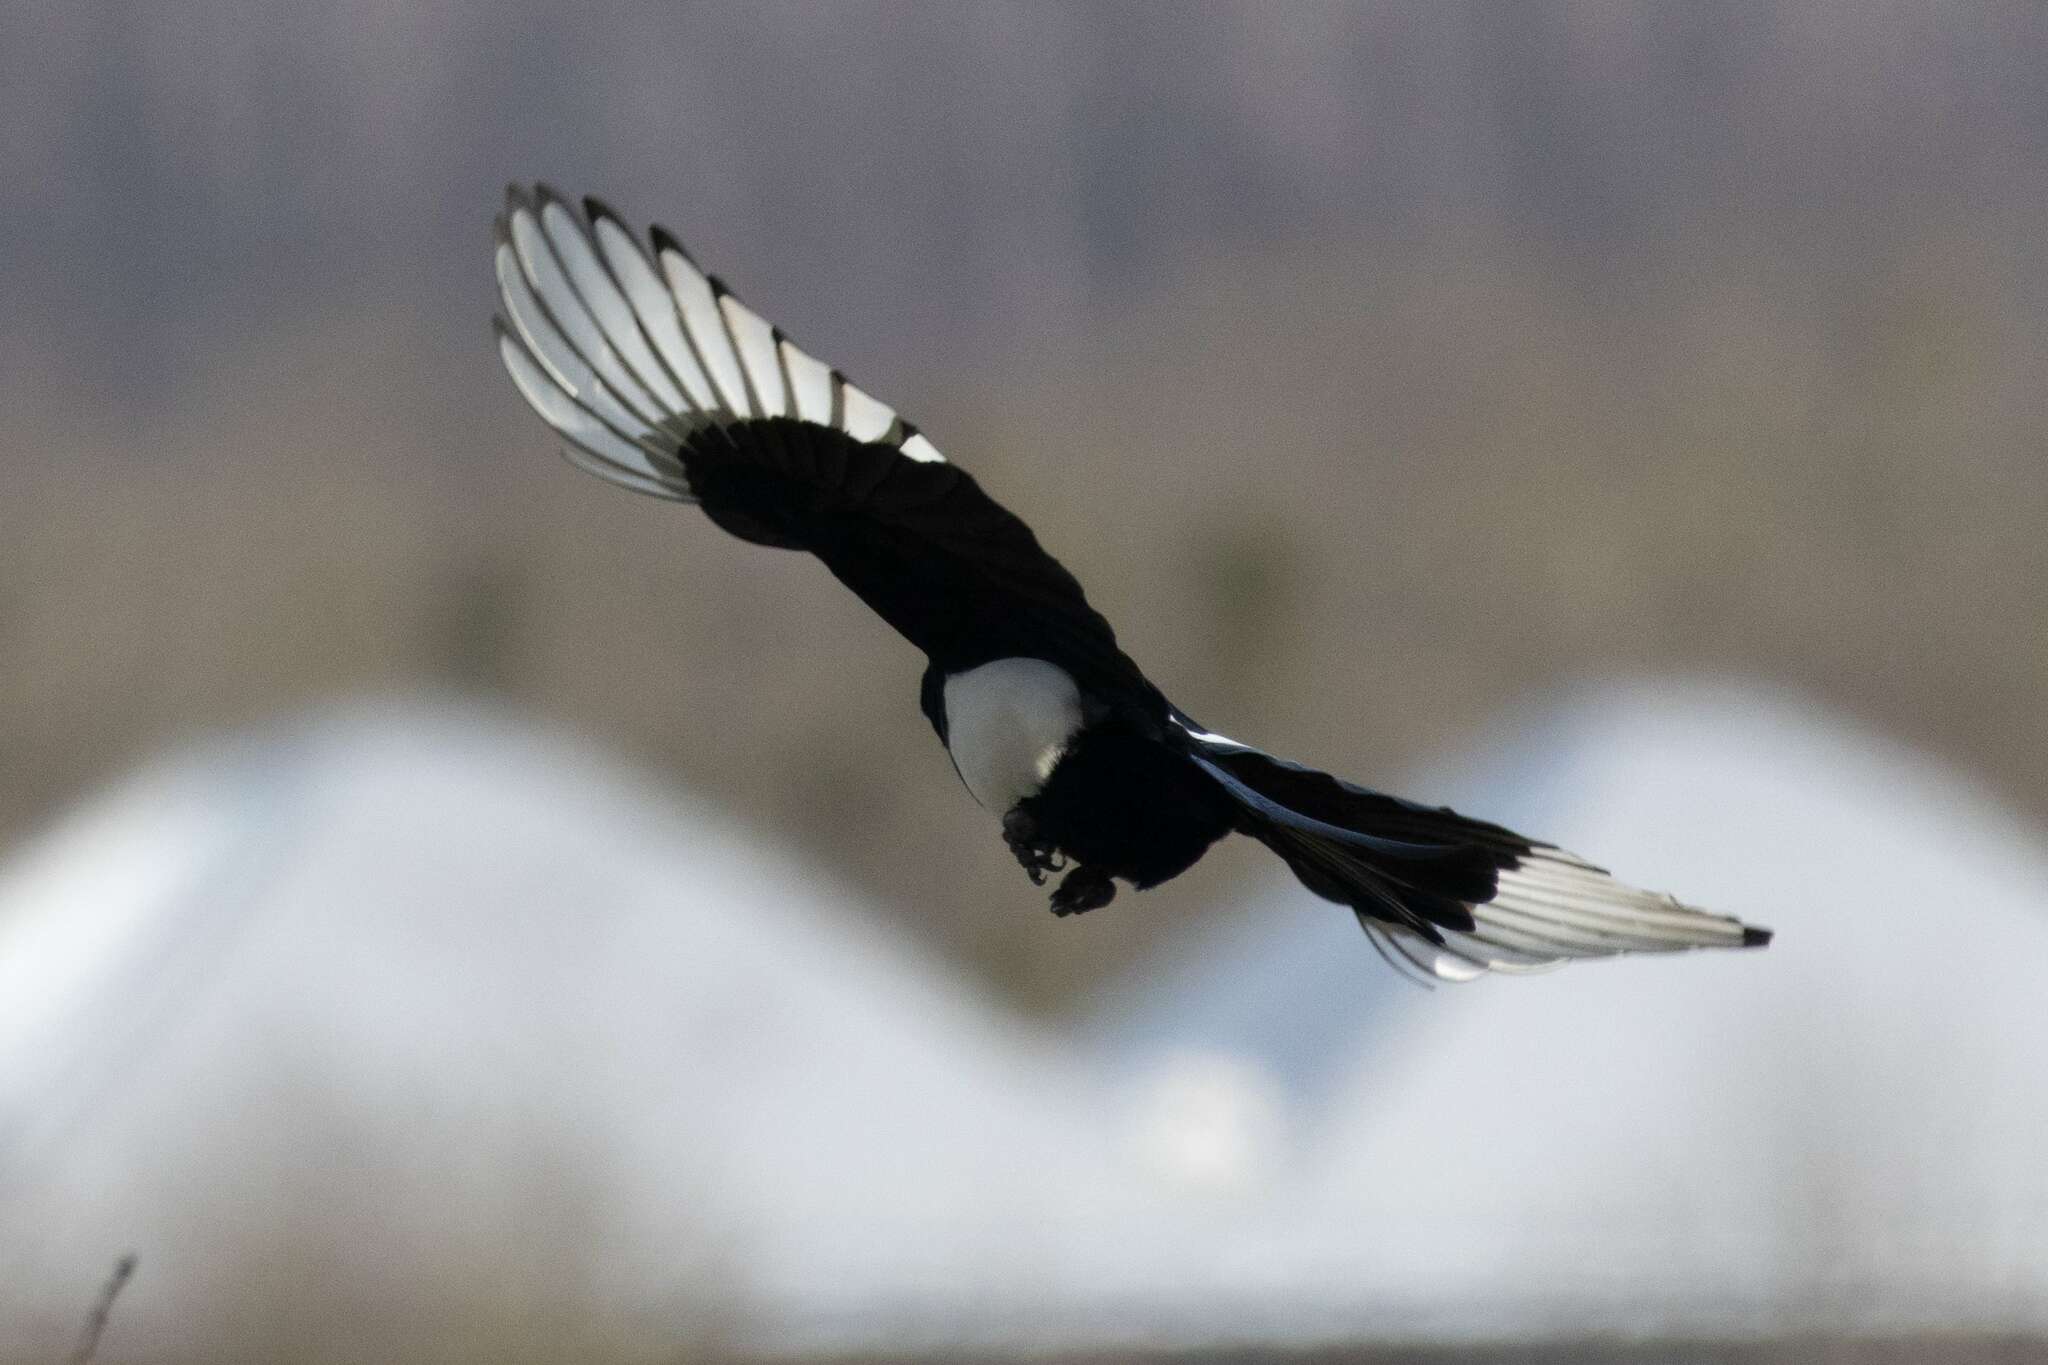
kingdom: Animalia
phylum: Chordata
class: Aves
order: Passeriformes
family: Corvidae
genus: Pica
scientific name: Pica pica
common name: Eurasian magpie
